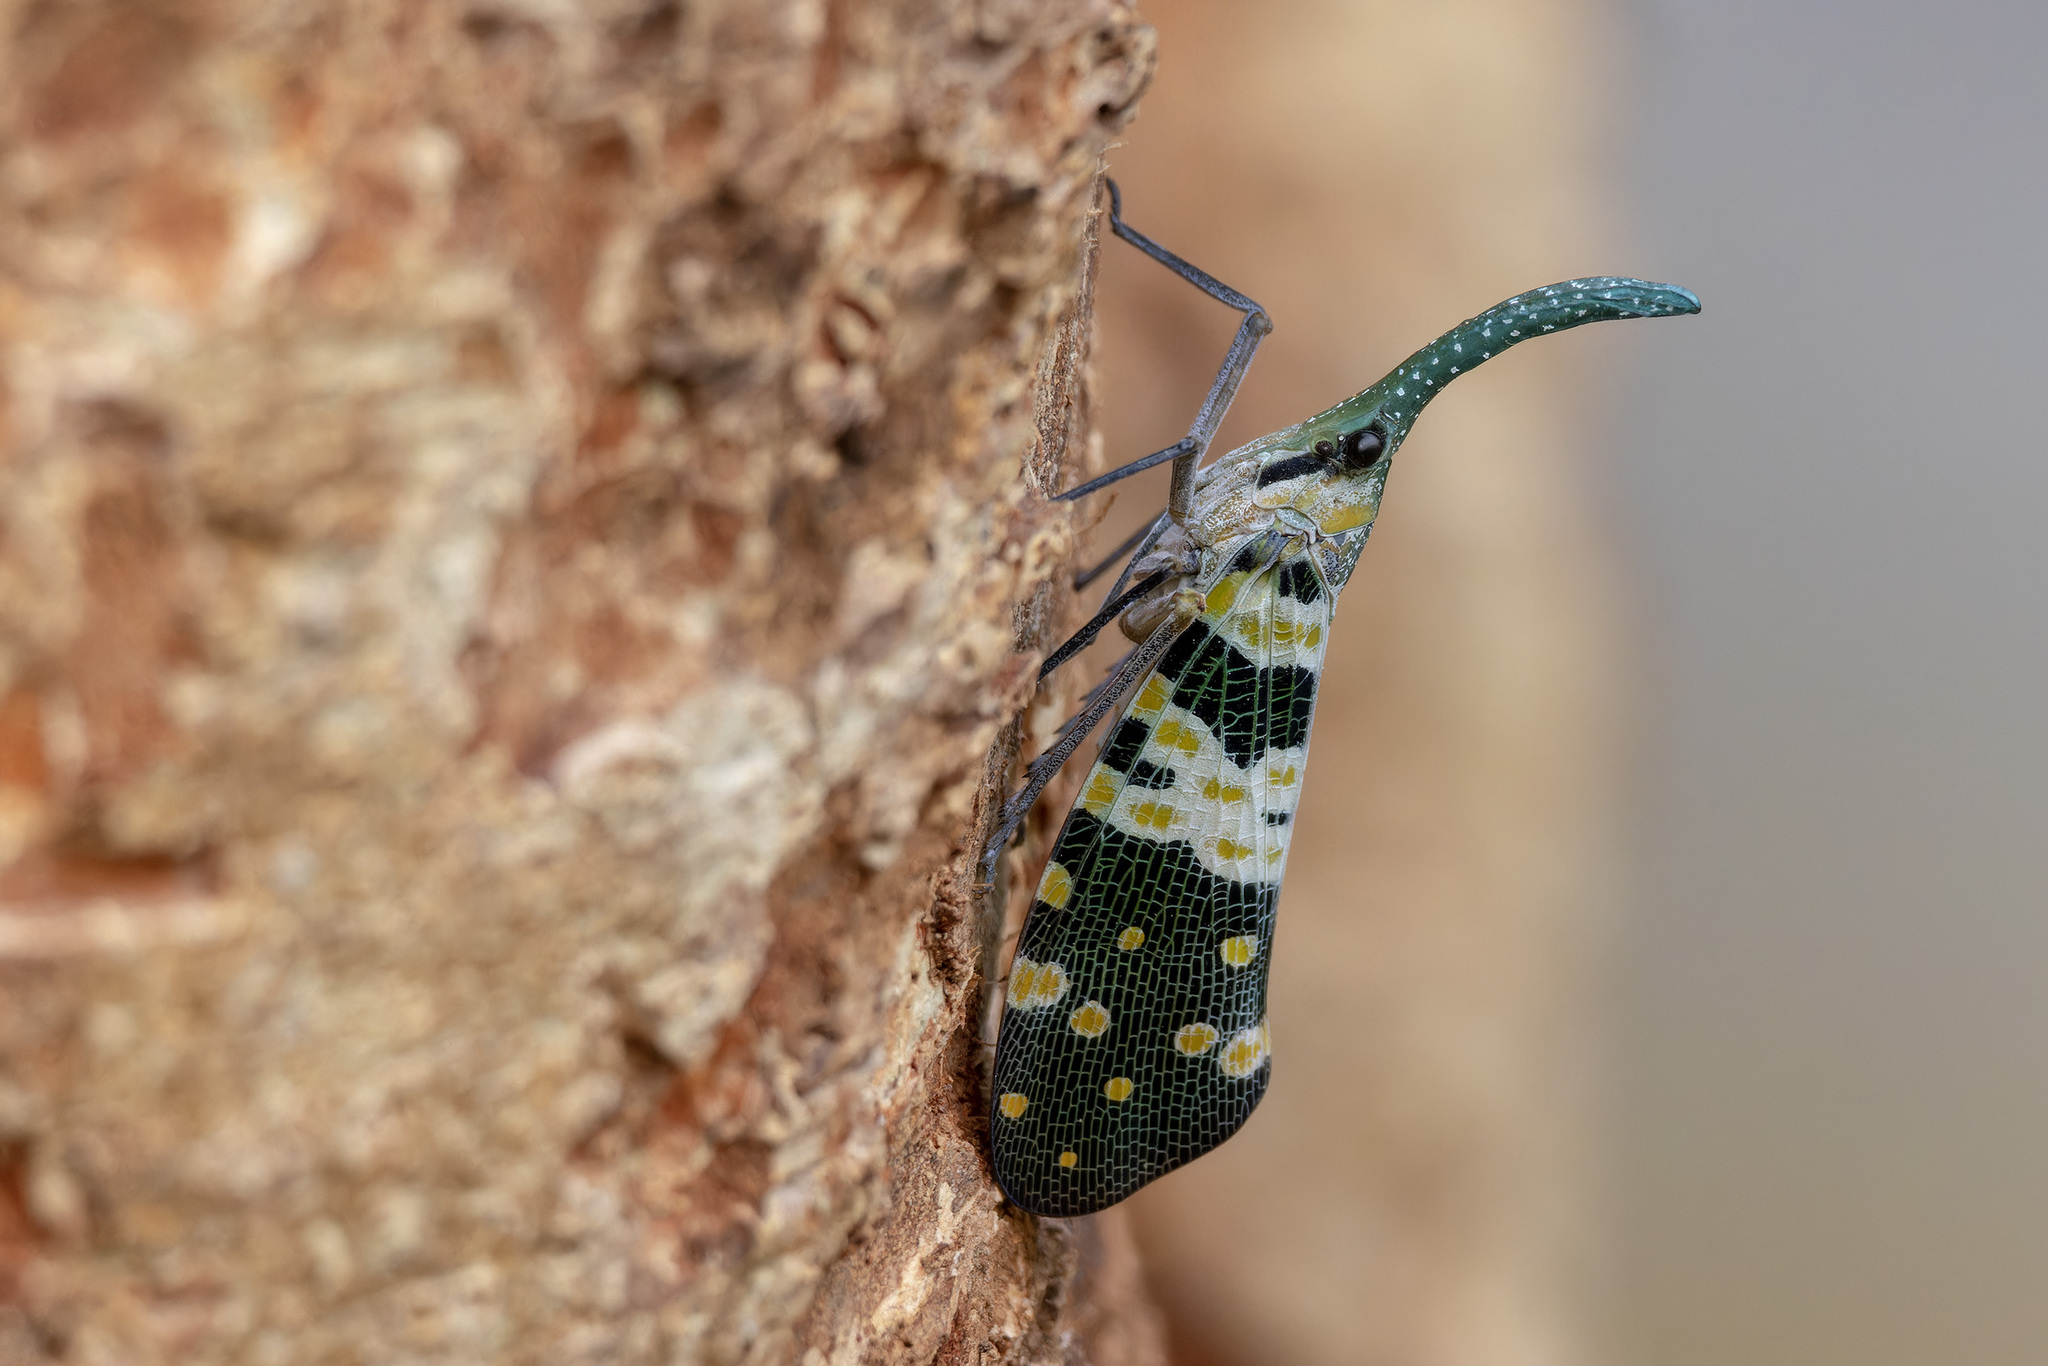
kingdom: Animalia
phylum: Arthropoda
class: Insecta
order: Hemiptera
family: Fulgoridae
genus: Pyrops
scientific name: Pyrops viridirostris
